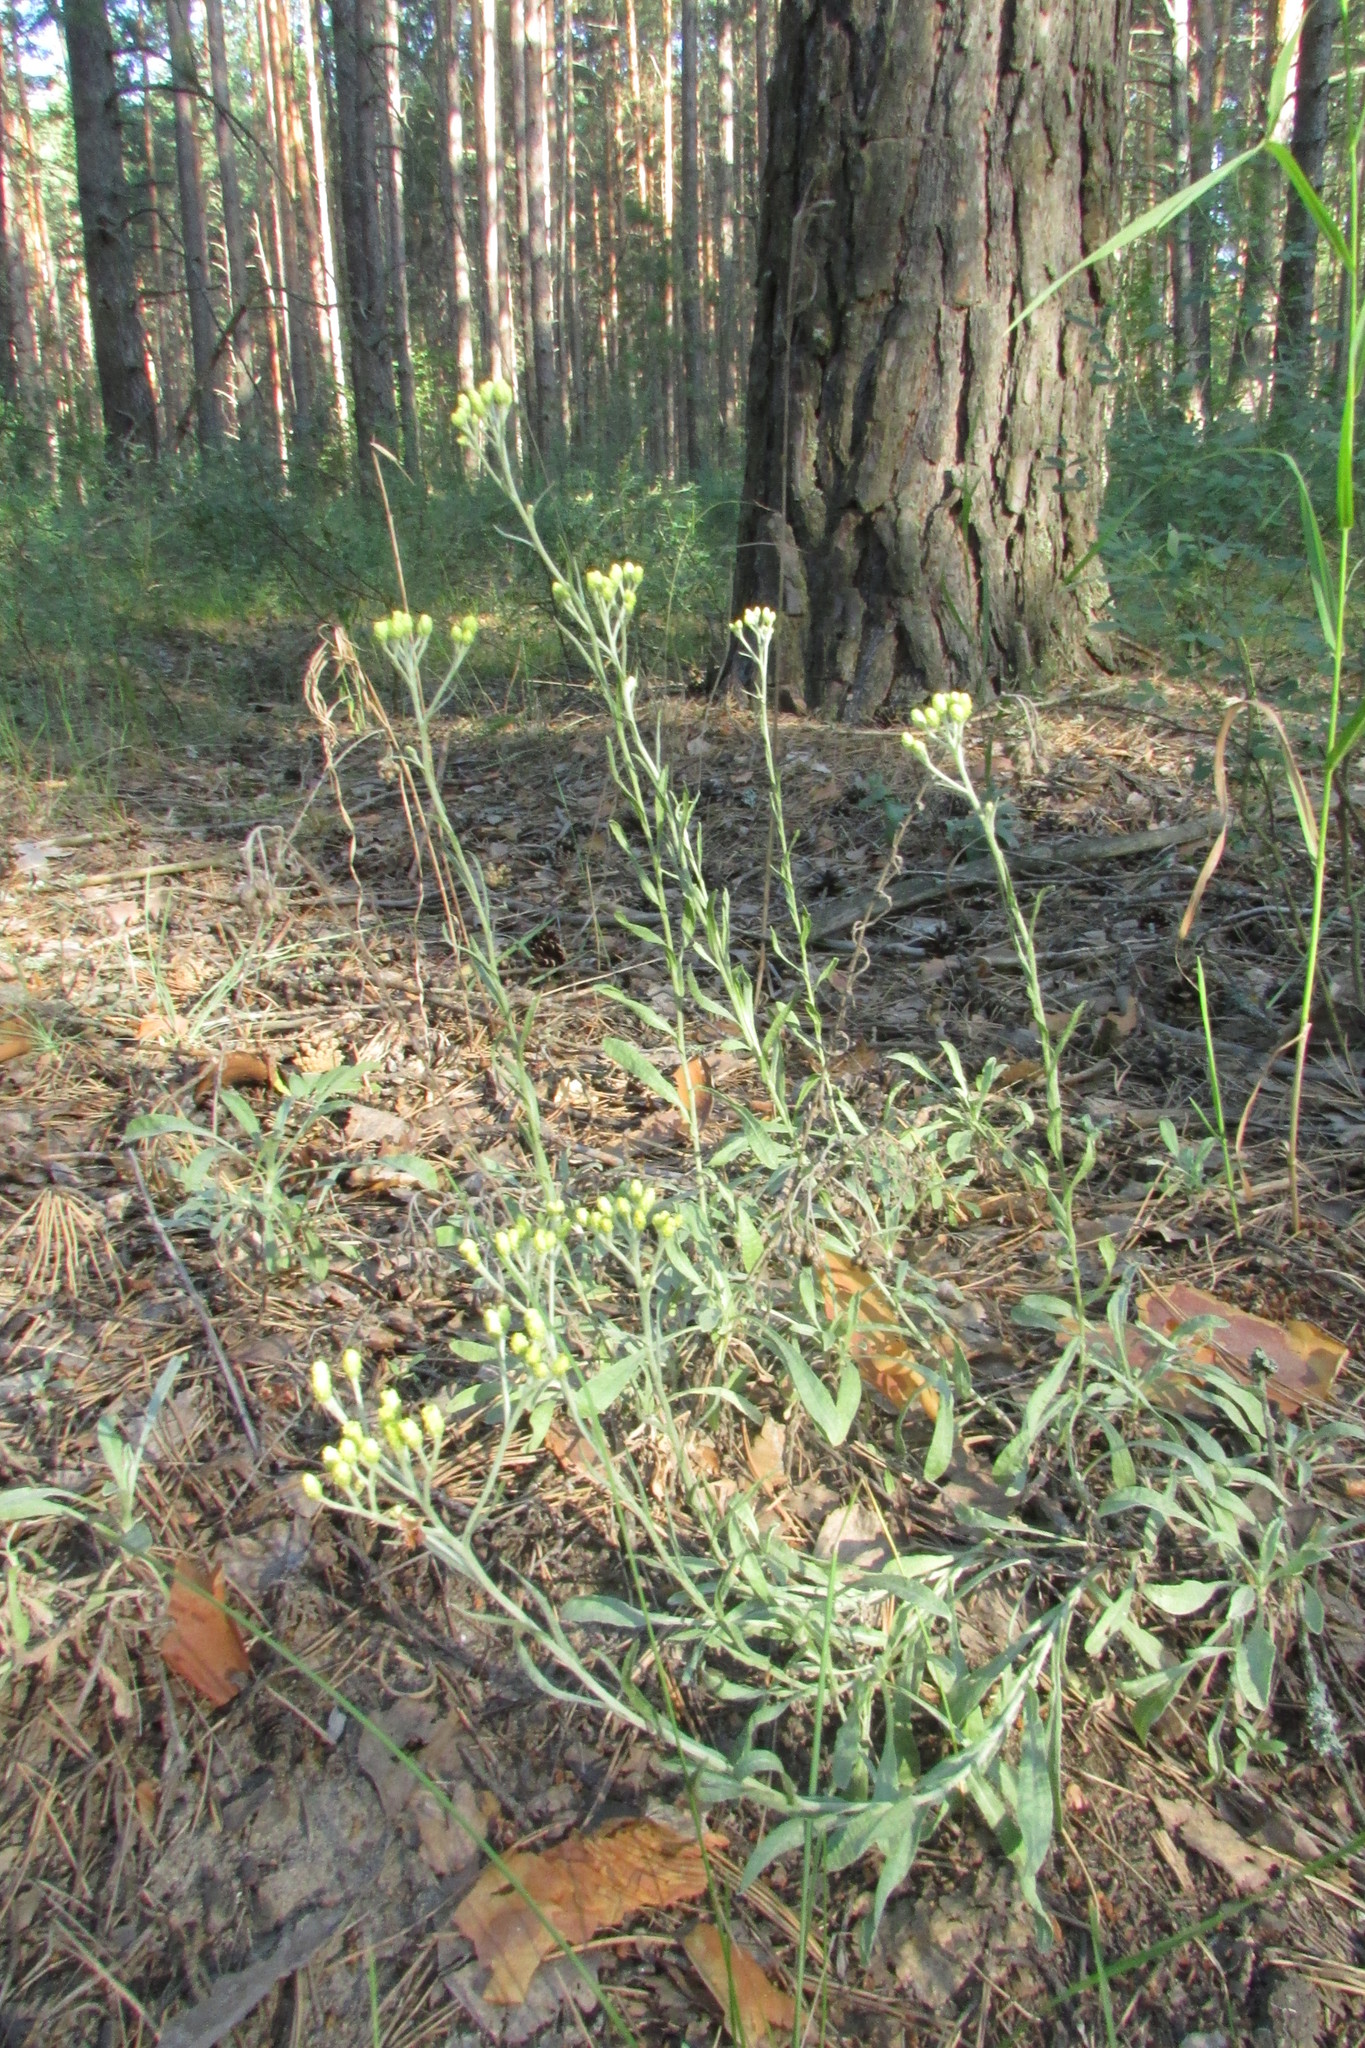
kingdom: Plantae
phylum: Tracheophyta
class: Magnoliopsida
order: Asterales
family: Asteraceae
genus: Helichrysum
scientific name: Helichrysum arenarium
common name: Strawflower
